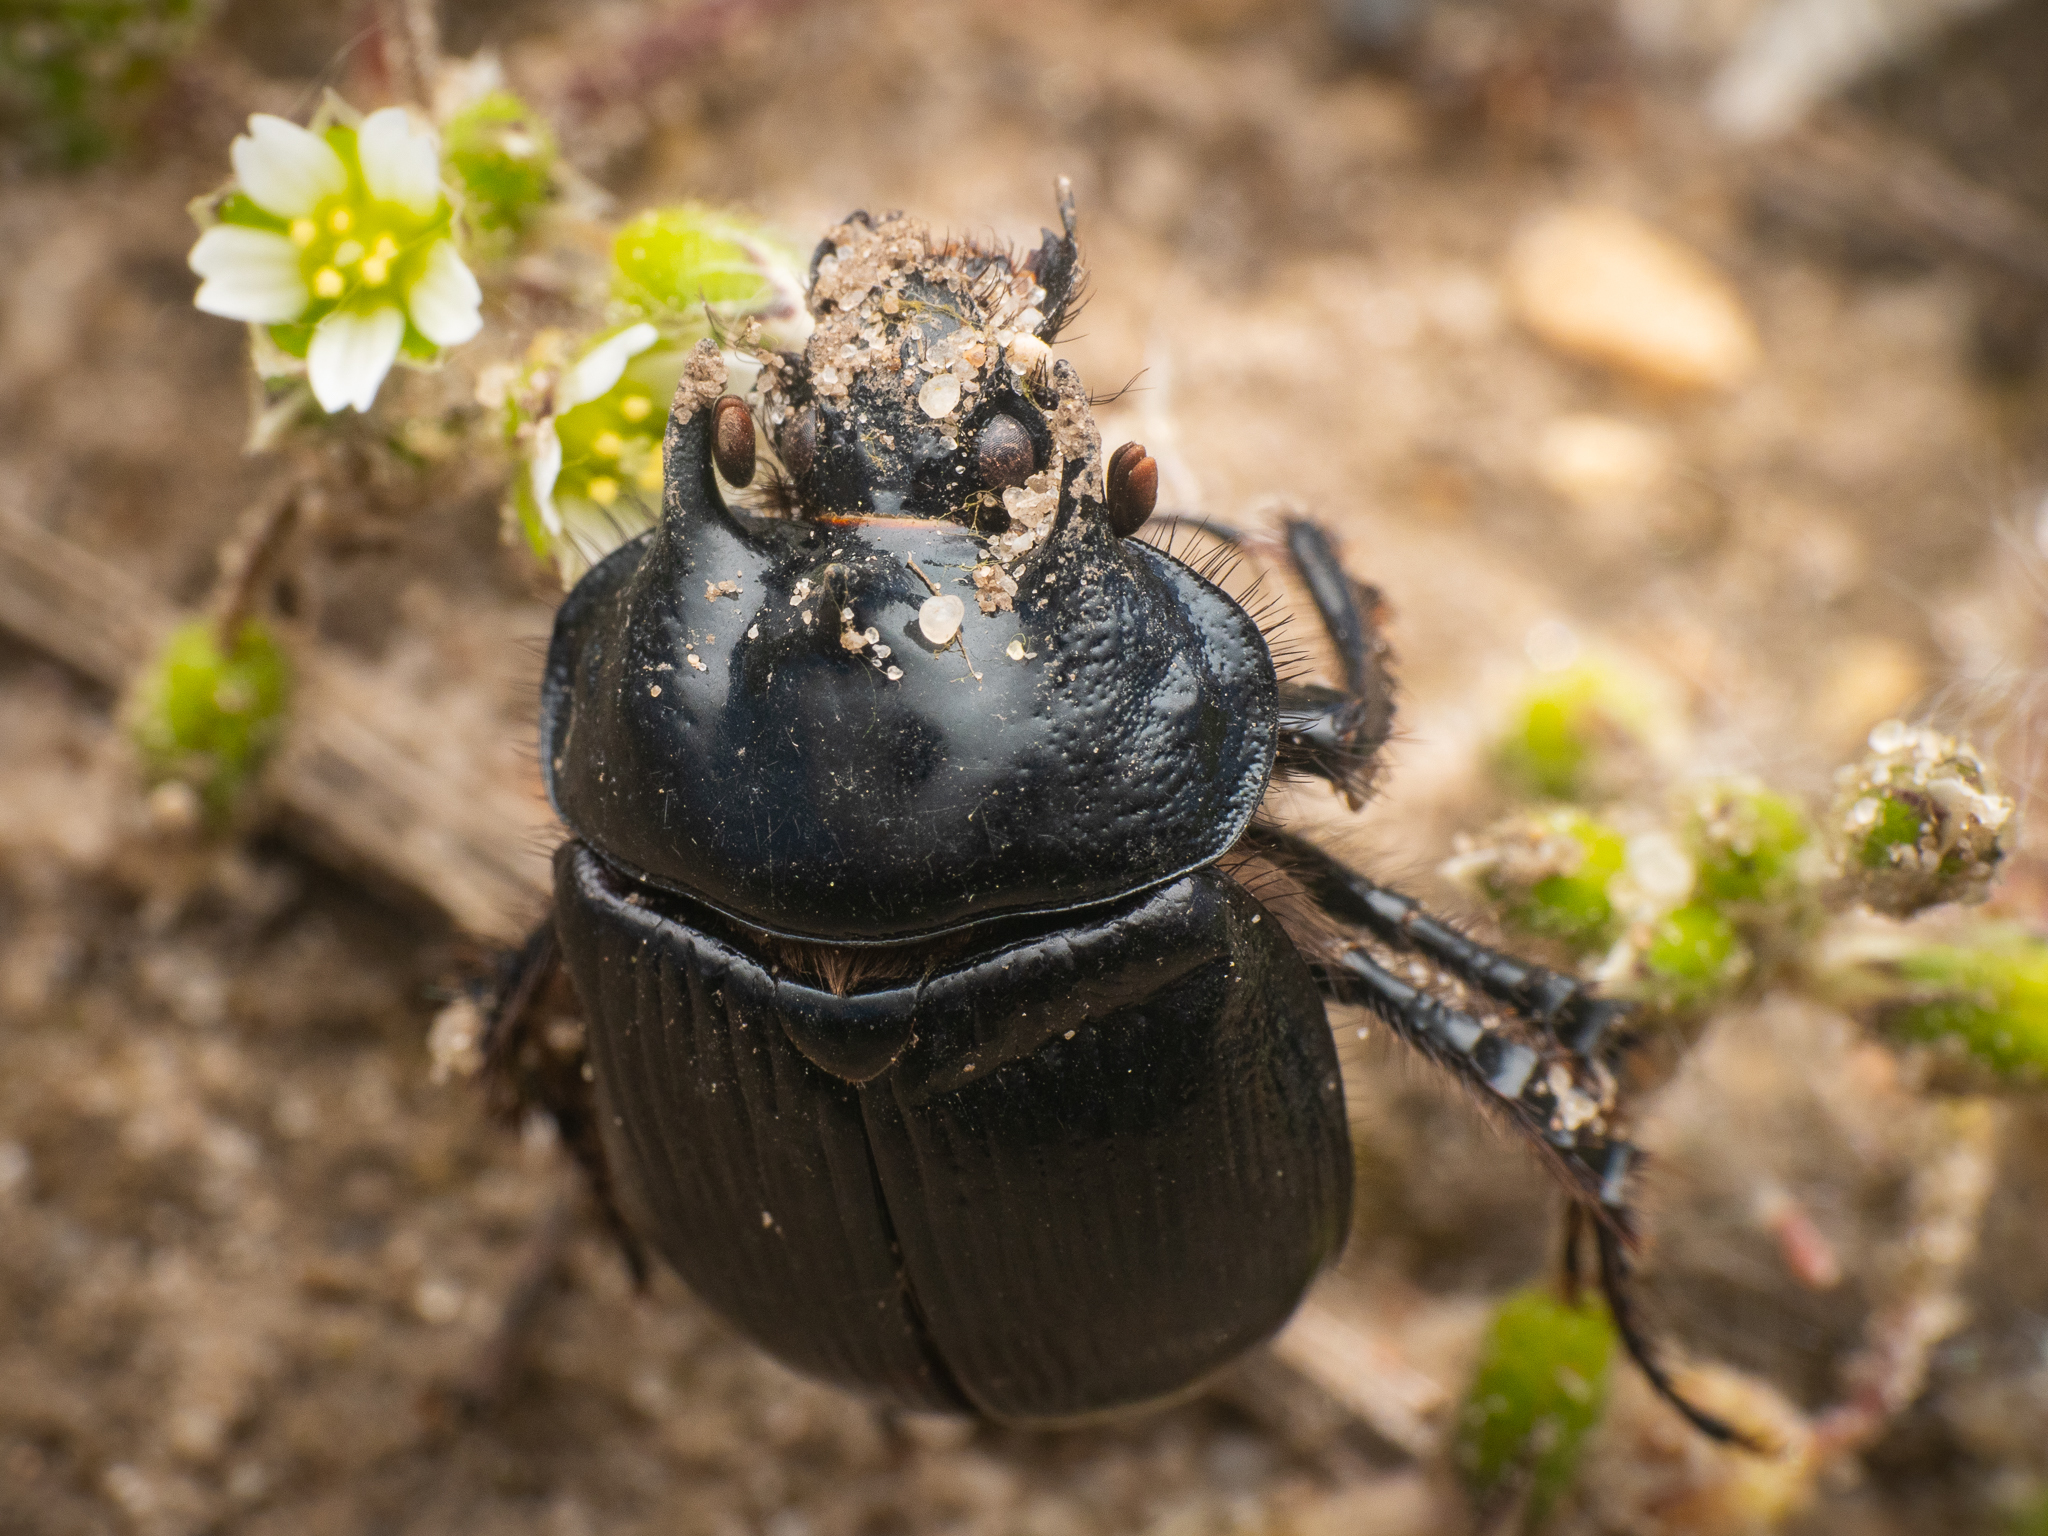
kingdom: Animalia
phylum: Arthropoda
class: Insecta
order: Coleoptera
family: Geotrupidae
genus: Typhaeus
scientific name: Typhaeus typhoeus
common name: Minotaur beetle
